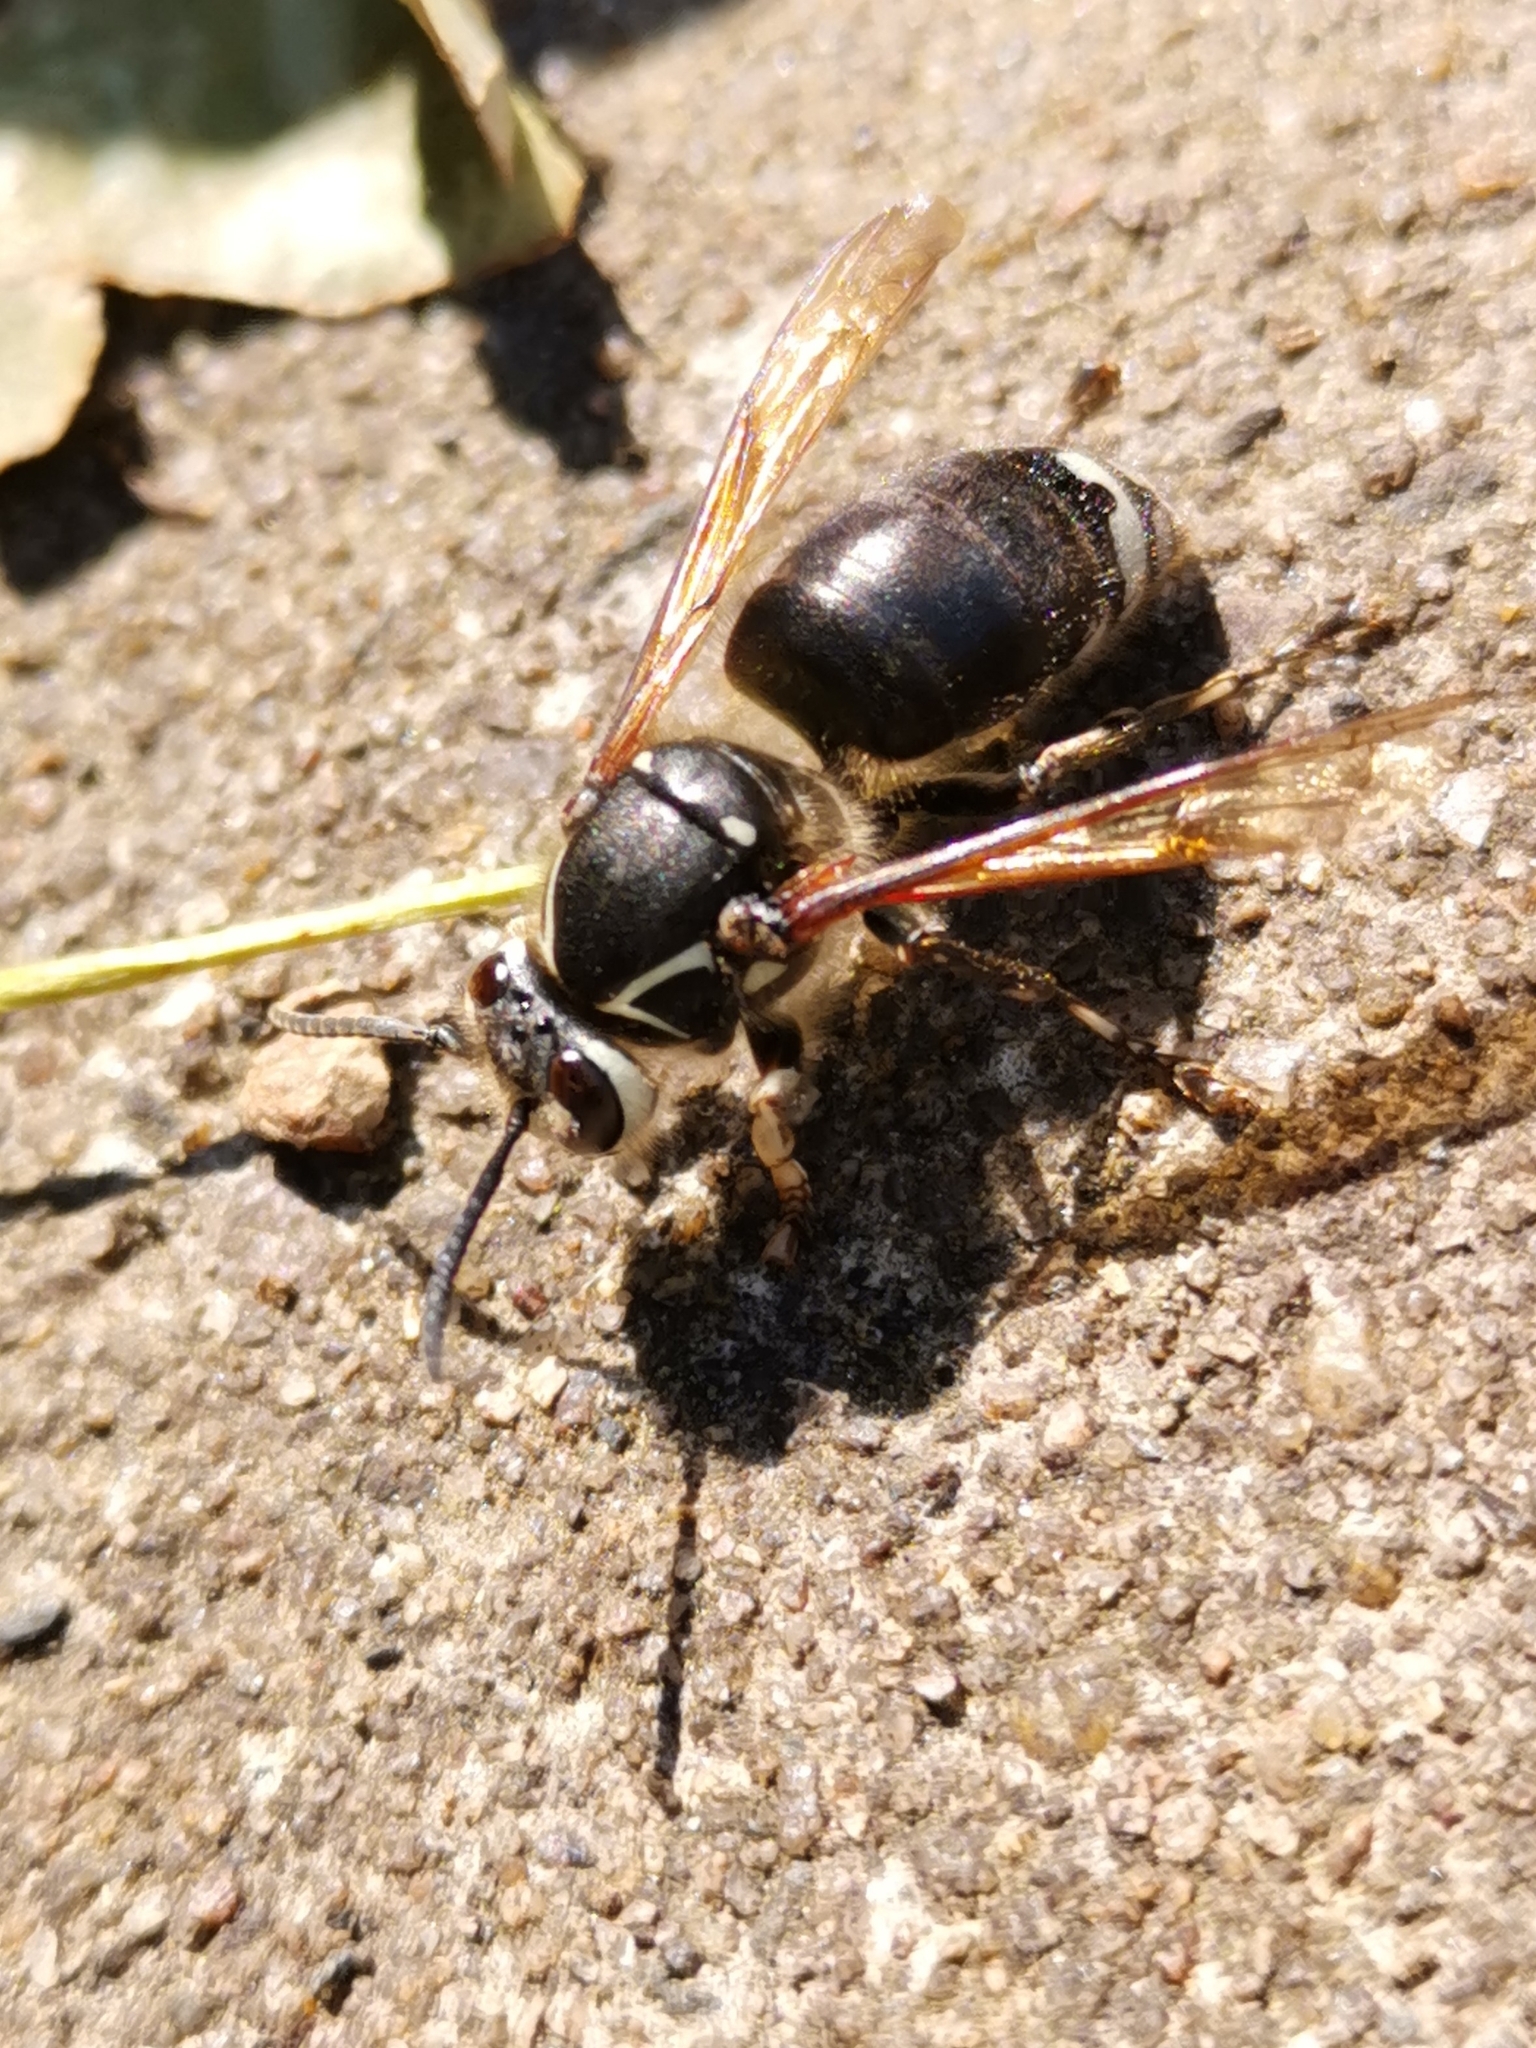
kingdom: Animalia
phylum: Arthropoda
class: Insecta
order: Hymenoptera
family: Vespidae
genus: Dolichovespula
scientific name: Dolichovespula maculata
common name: Bald-faced hornet
